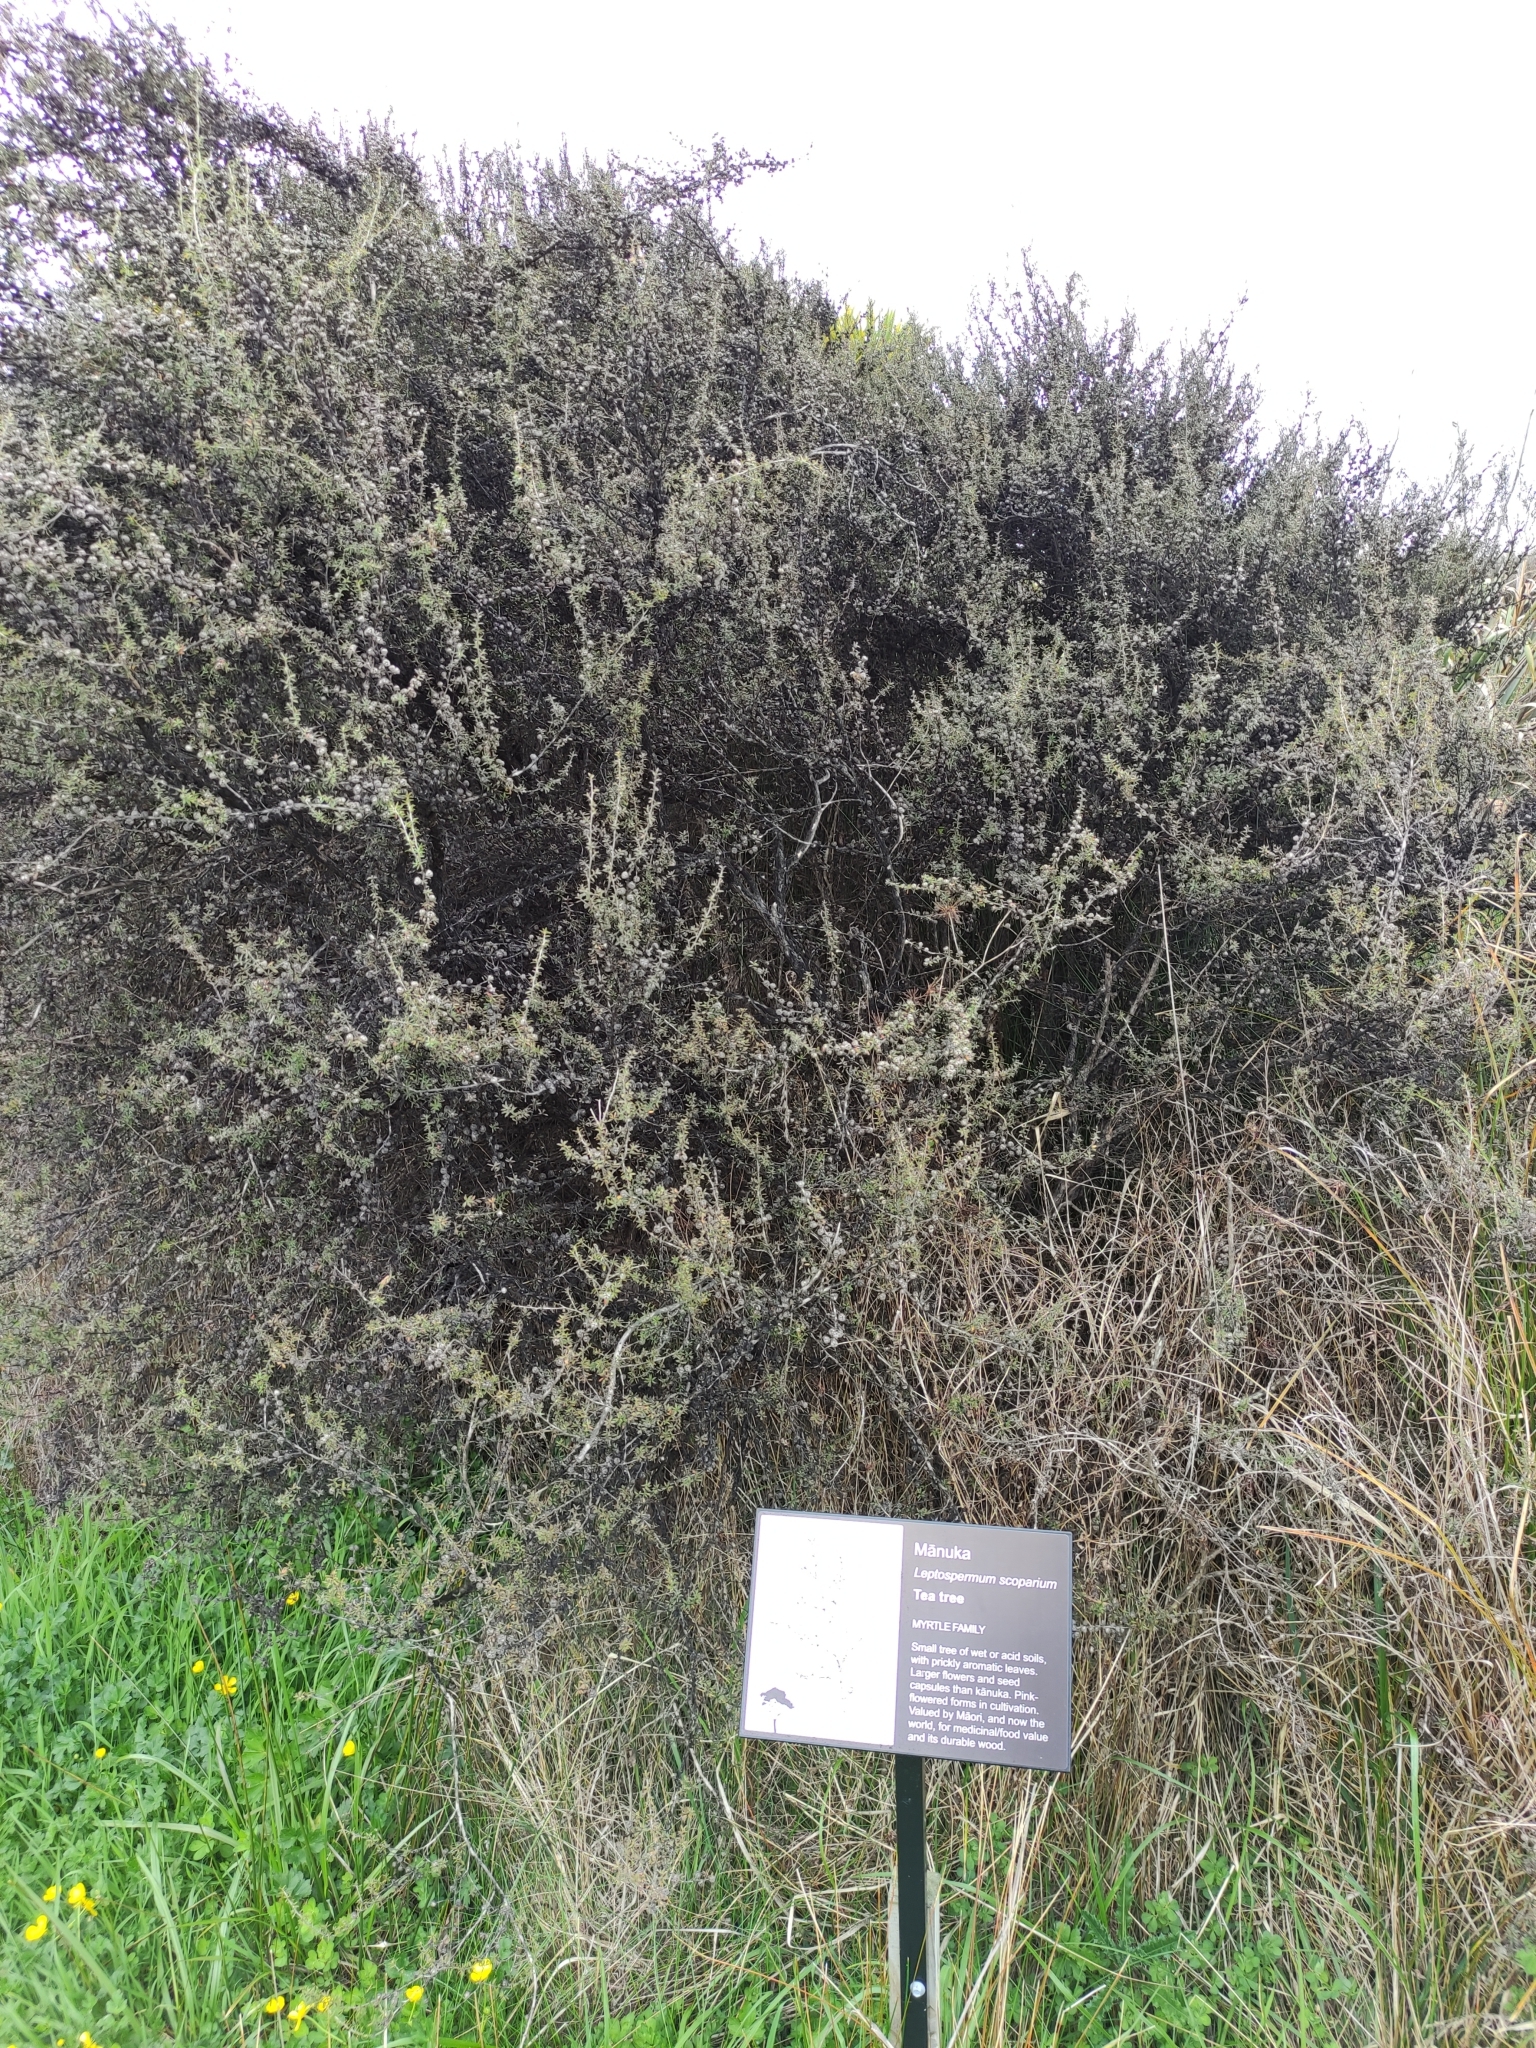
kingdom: Plantae
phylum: Tracheophyta
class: Magnoliopsida
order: Myrtales
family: Myrtaceae
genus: Leptospermum
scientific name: Leptospermum scoparium
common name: Broom tea-tree
